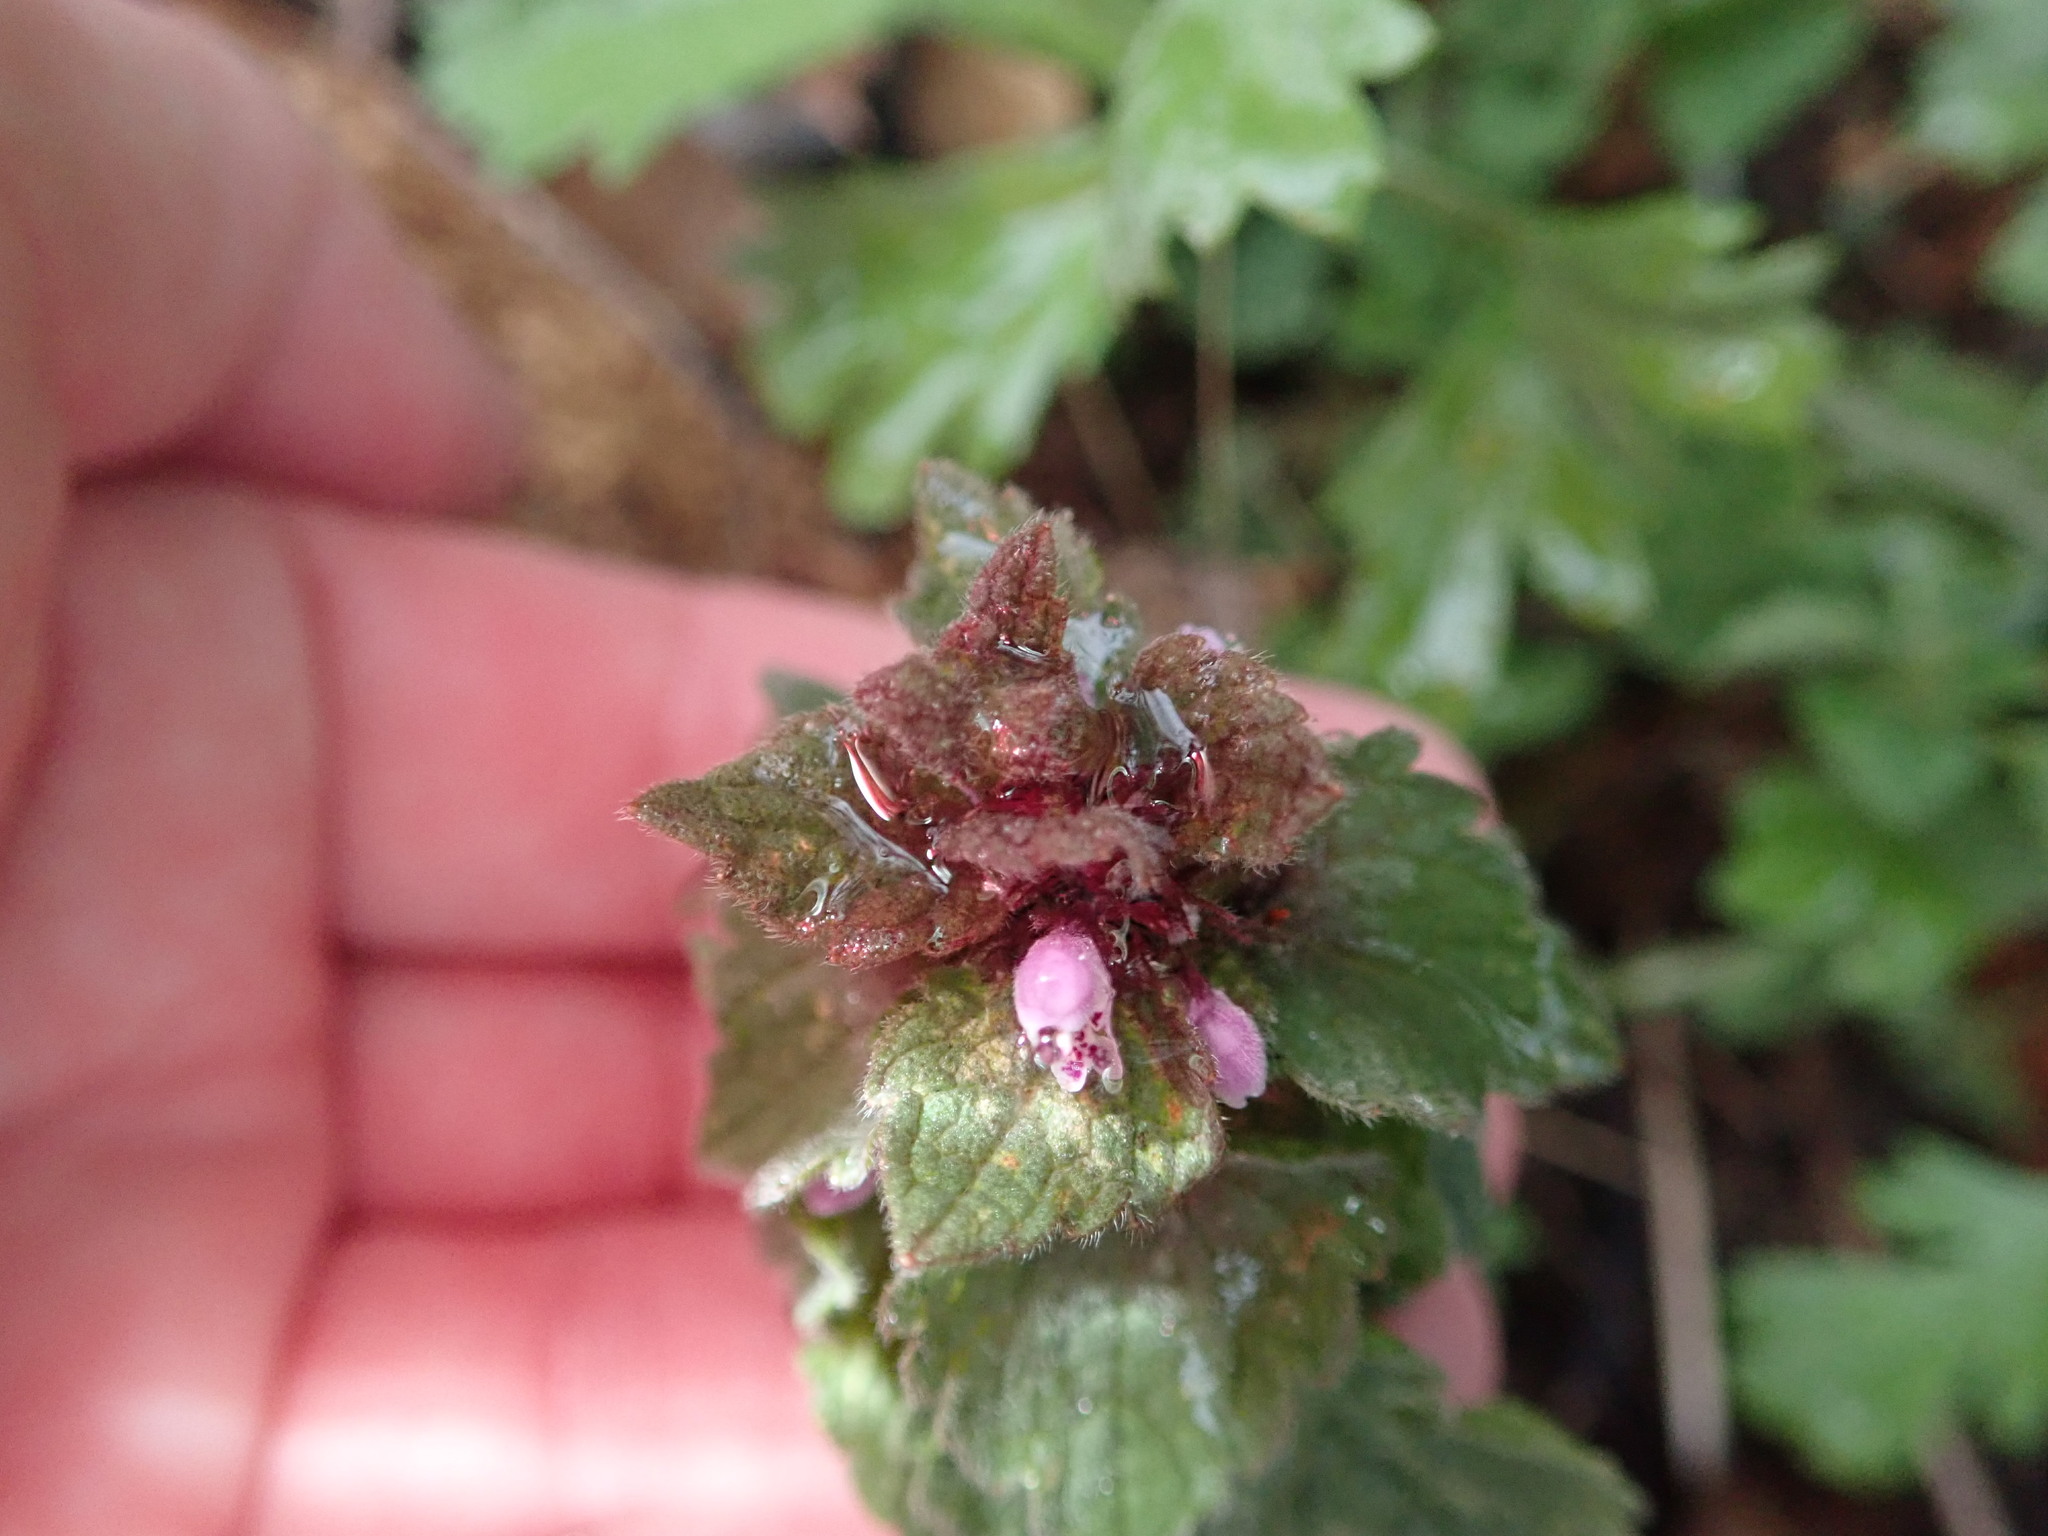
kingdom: Plantae
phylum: Tracheophyta
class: Magnoliopsida
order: Lamiales
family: Lamiaceae
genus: Lamium
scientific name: Lamium purpureum
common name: Red dead-nettle
